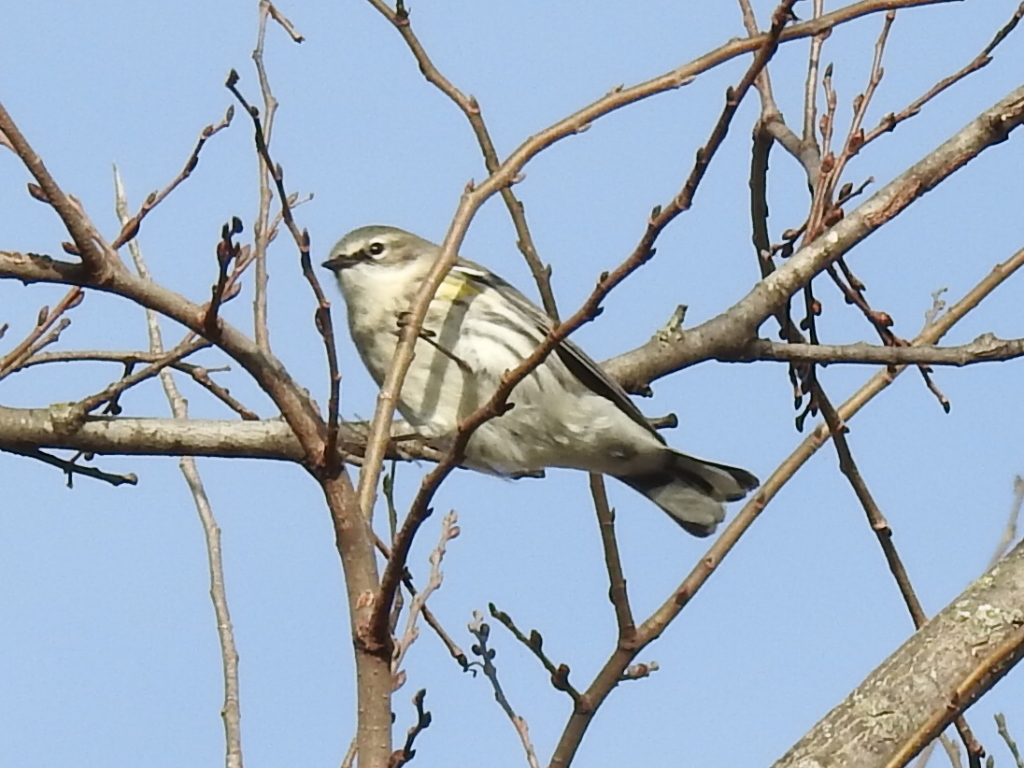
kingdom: Animalia
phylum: Chordata
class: Aves
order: Passeriformes
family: Parulidae
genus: Setophaga
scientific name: Setophaga coronata
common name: Myrtle warbler
